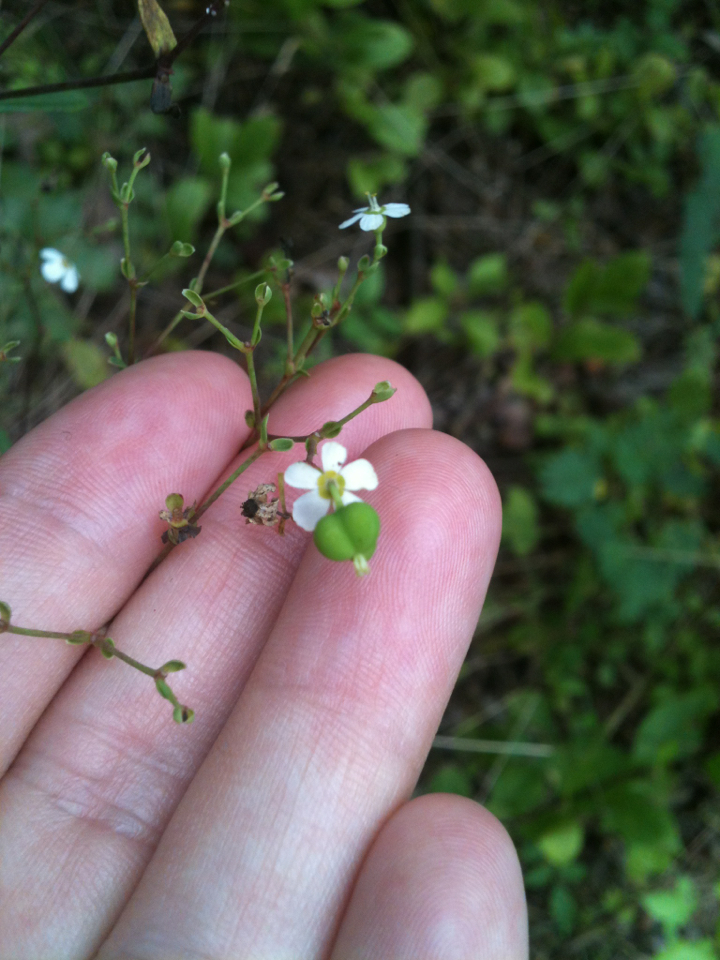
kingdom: Plantae
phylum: Tracheophyta
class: Magnoliopsida
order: Malpighiales
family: Euphorbiaceae
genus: Euphorbia
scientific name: Euphorbia corollata
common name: Flowering spurge
